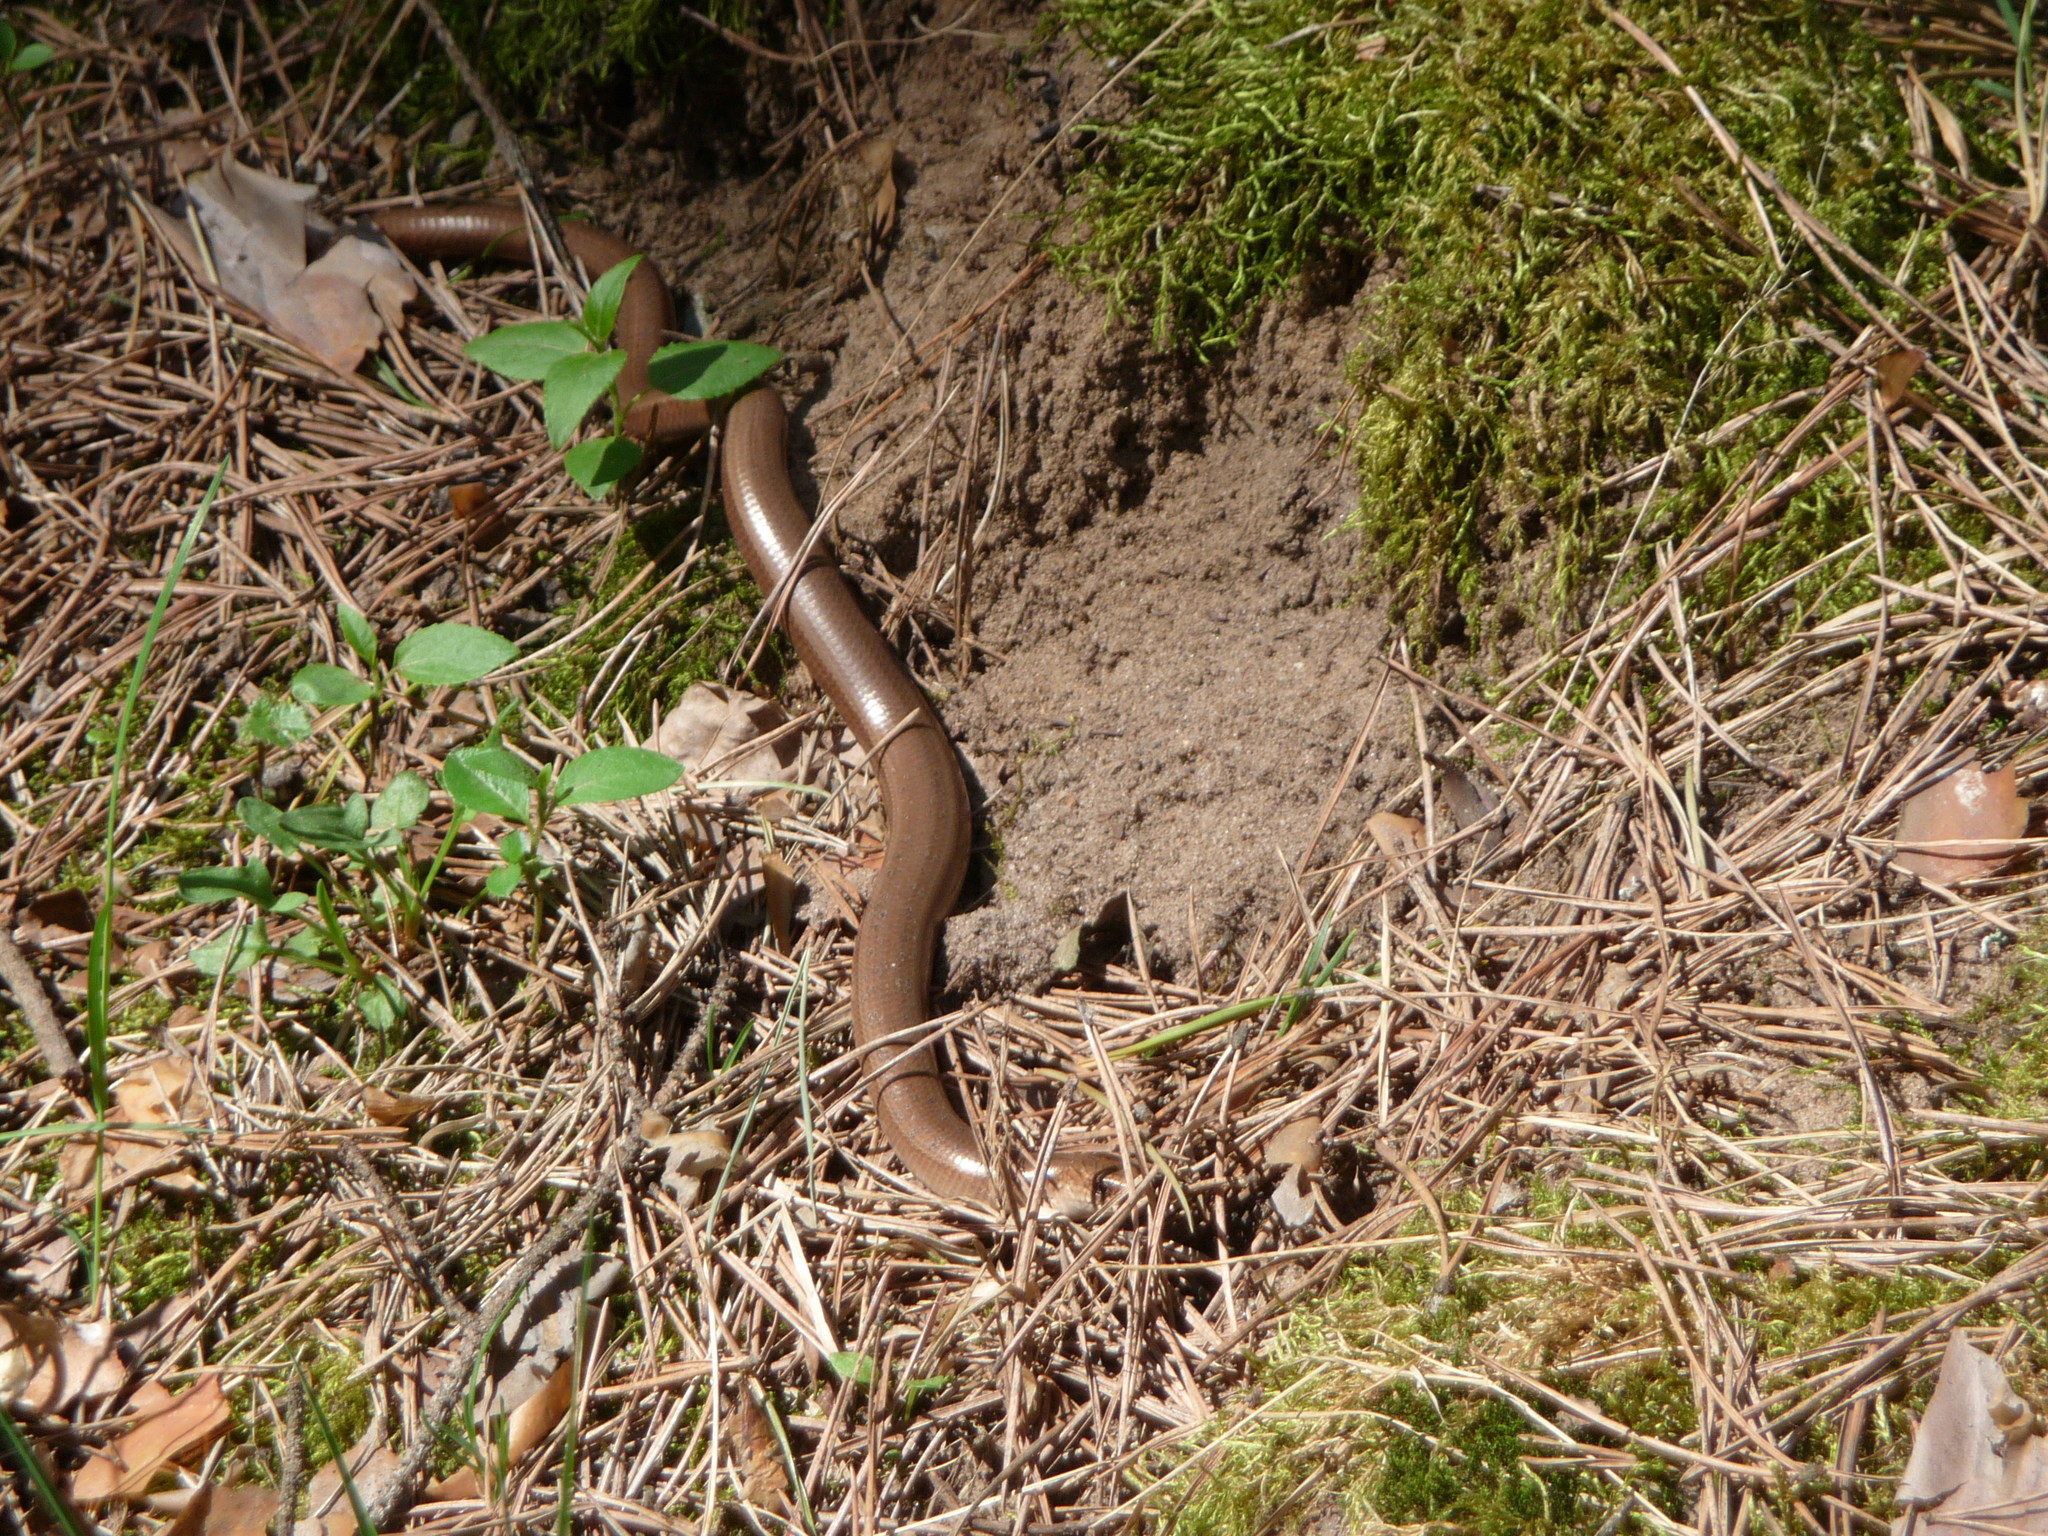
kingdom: Animalia
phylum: Chordata
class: Squamata
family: Anguidae
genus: Anguis
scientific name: Anguis colchica
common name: Slow worm
